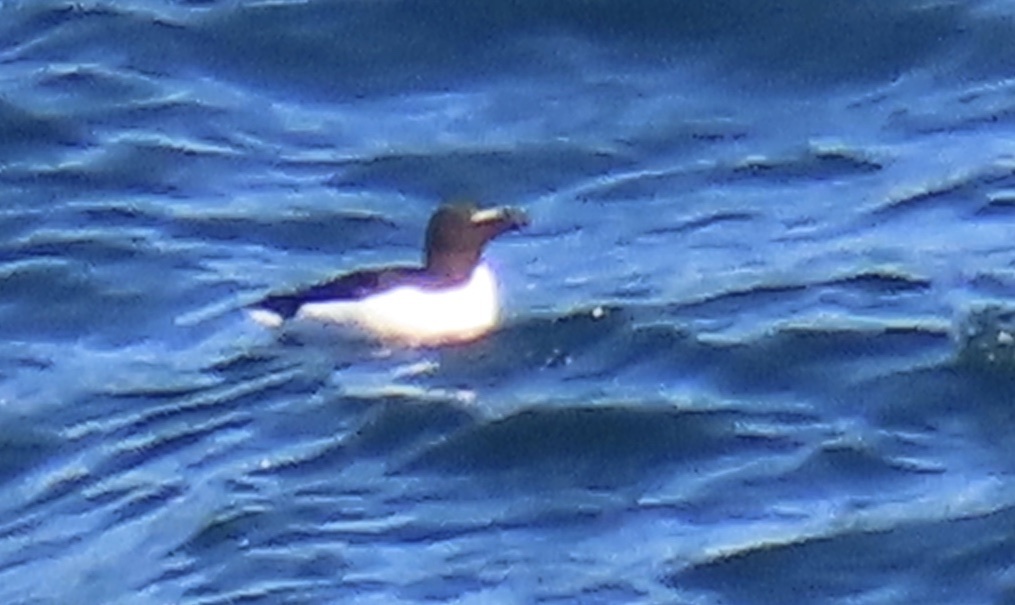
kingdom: Animalia
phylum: Chordata
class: Aves
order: Charadriiformes
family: Alcidae
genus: Alca
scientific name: Alca torda
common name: Razorbill
